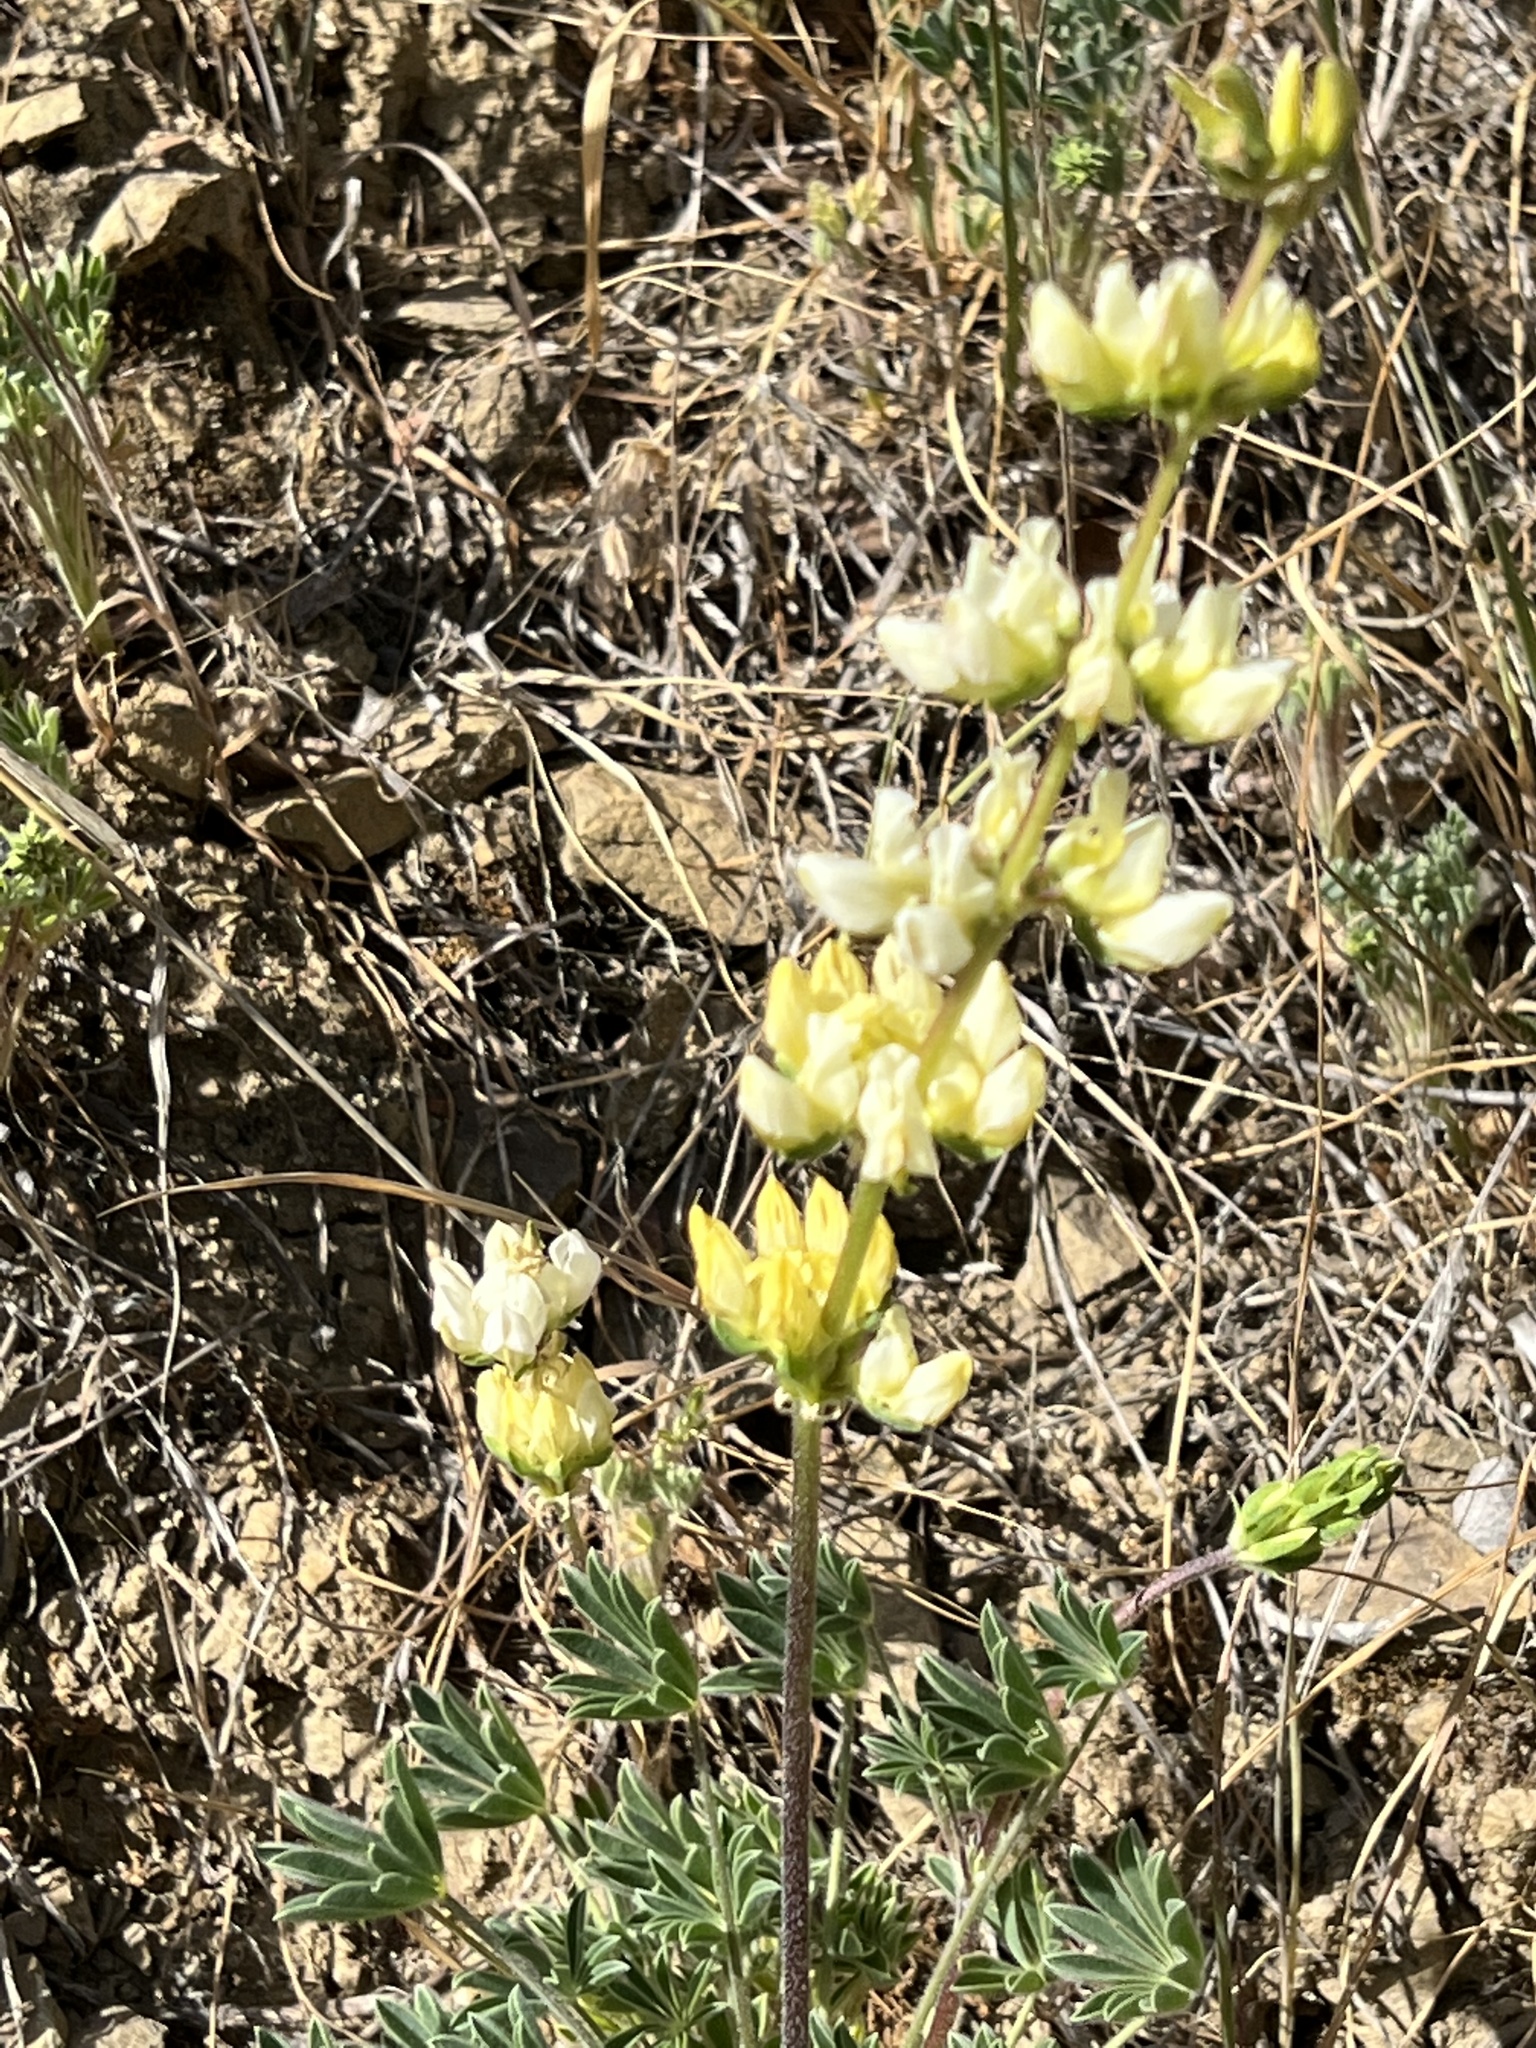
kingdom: Plantae
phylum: Tracheophyta
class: Magnoliopsida
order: Fabales
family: Fabaceae
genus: Lupinus
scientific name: Lupinus microcarpus
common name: Chick lupine
